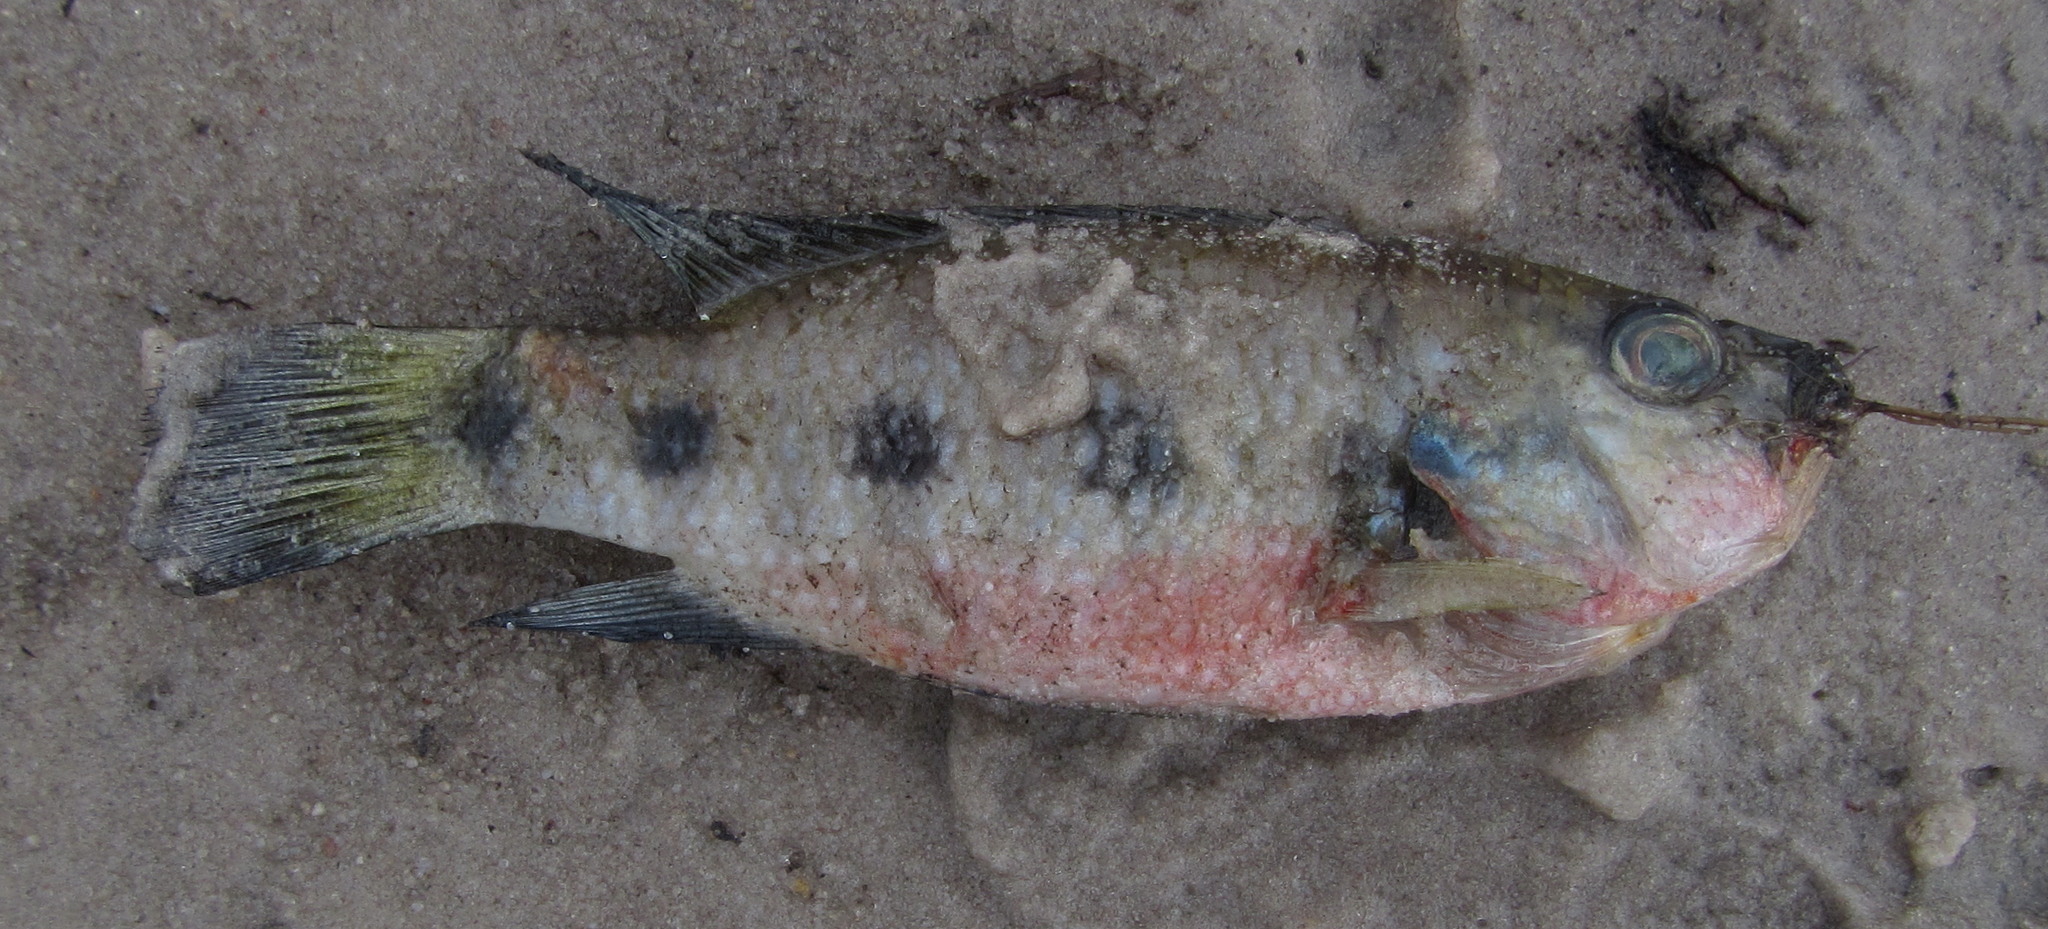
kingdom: Animalia
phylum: Chordata
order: Perciformes
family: Cichlidae
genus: Hemichromis
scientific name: Hemichromis elongatus
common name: Jewel cichlid
